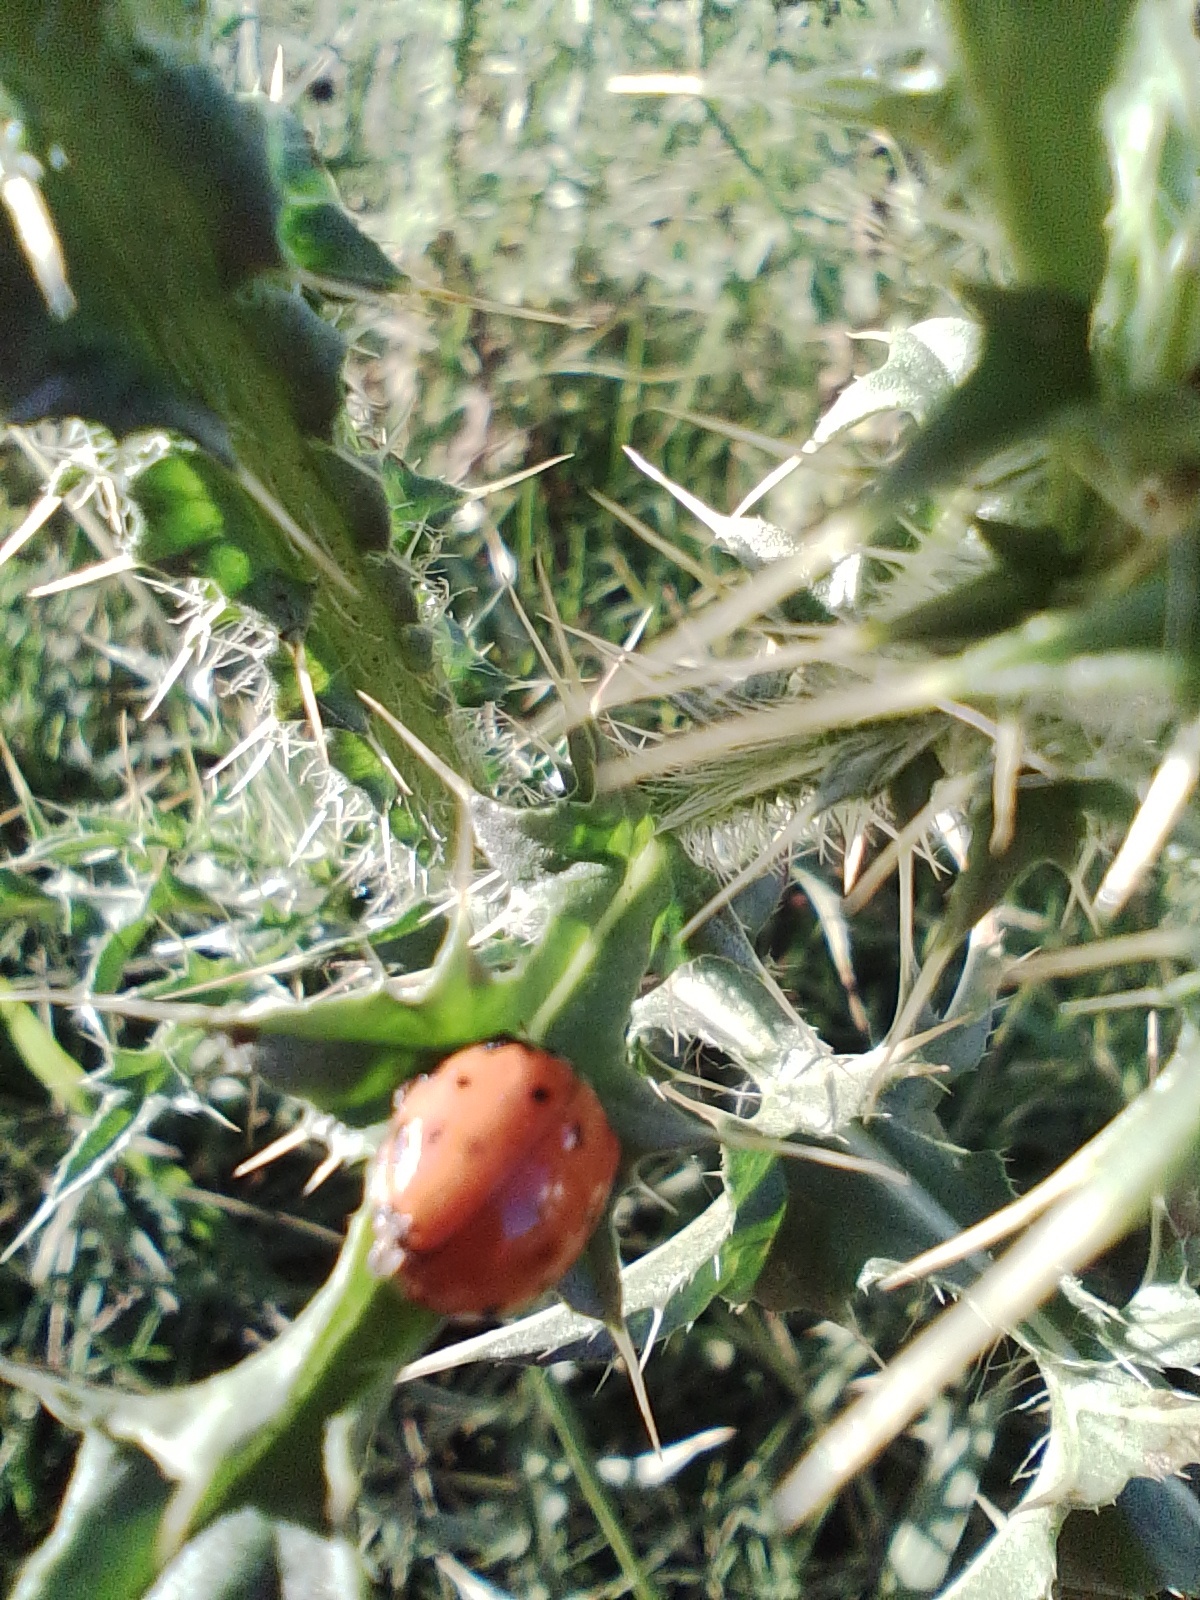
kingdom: Animalia
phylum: Arthropoda
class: Insecta
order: Coleoptera
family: Coccinellidae
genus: Harmonia
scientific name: Harmonia axyridis
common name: Harlequin ladybird
